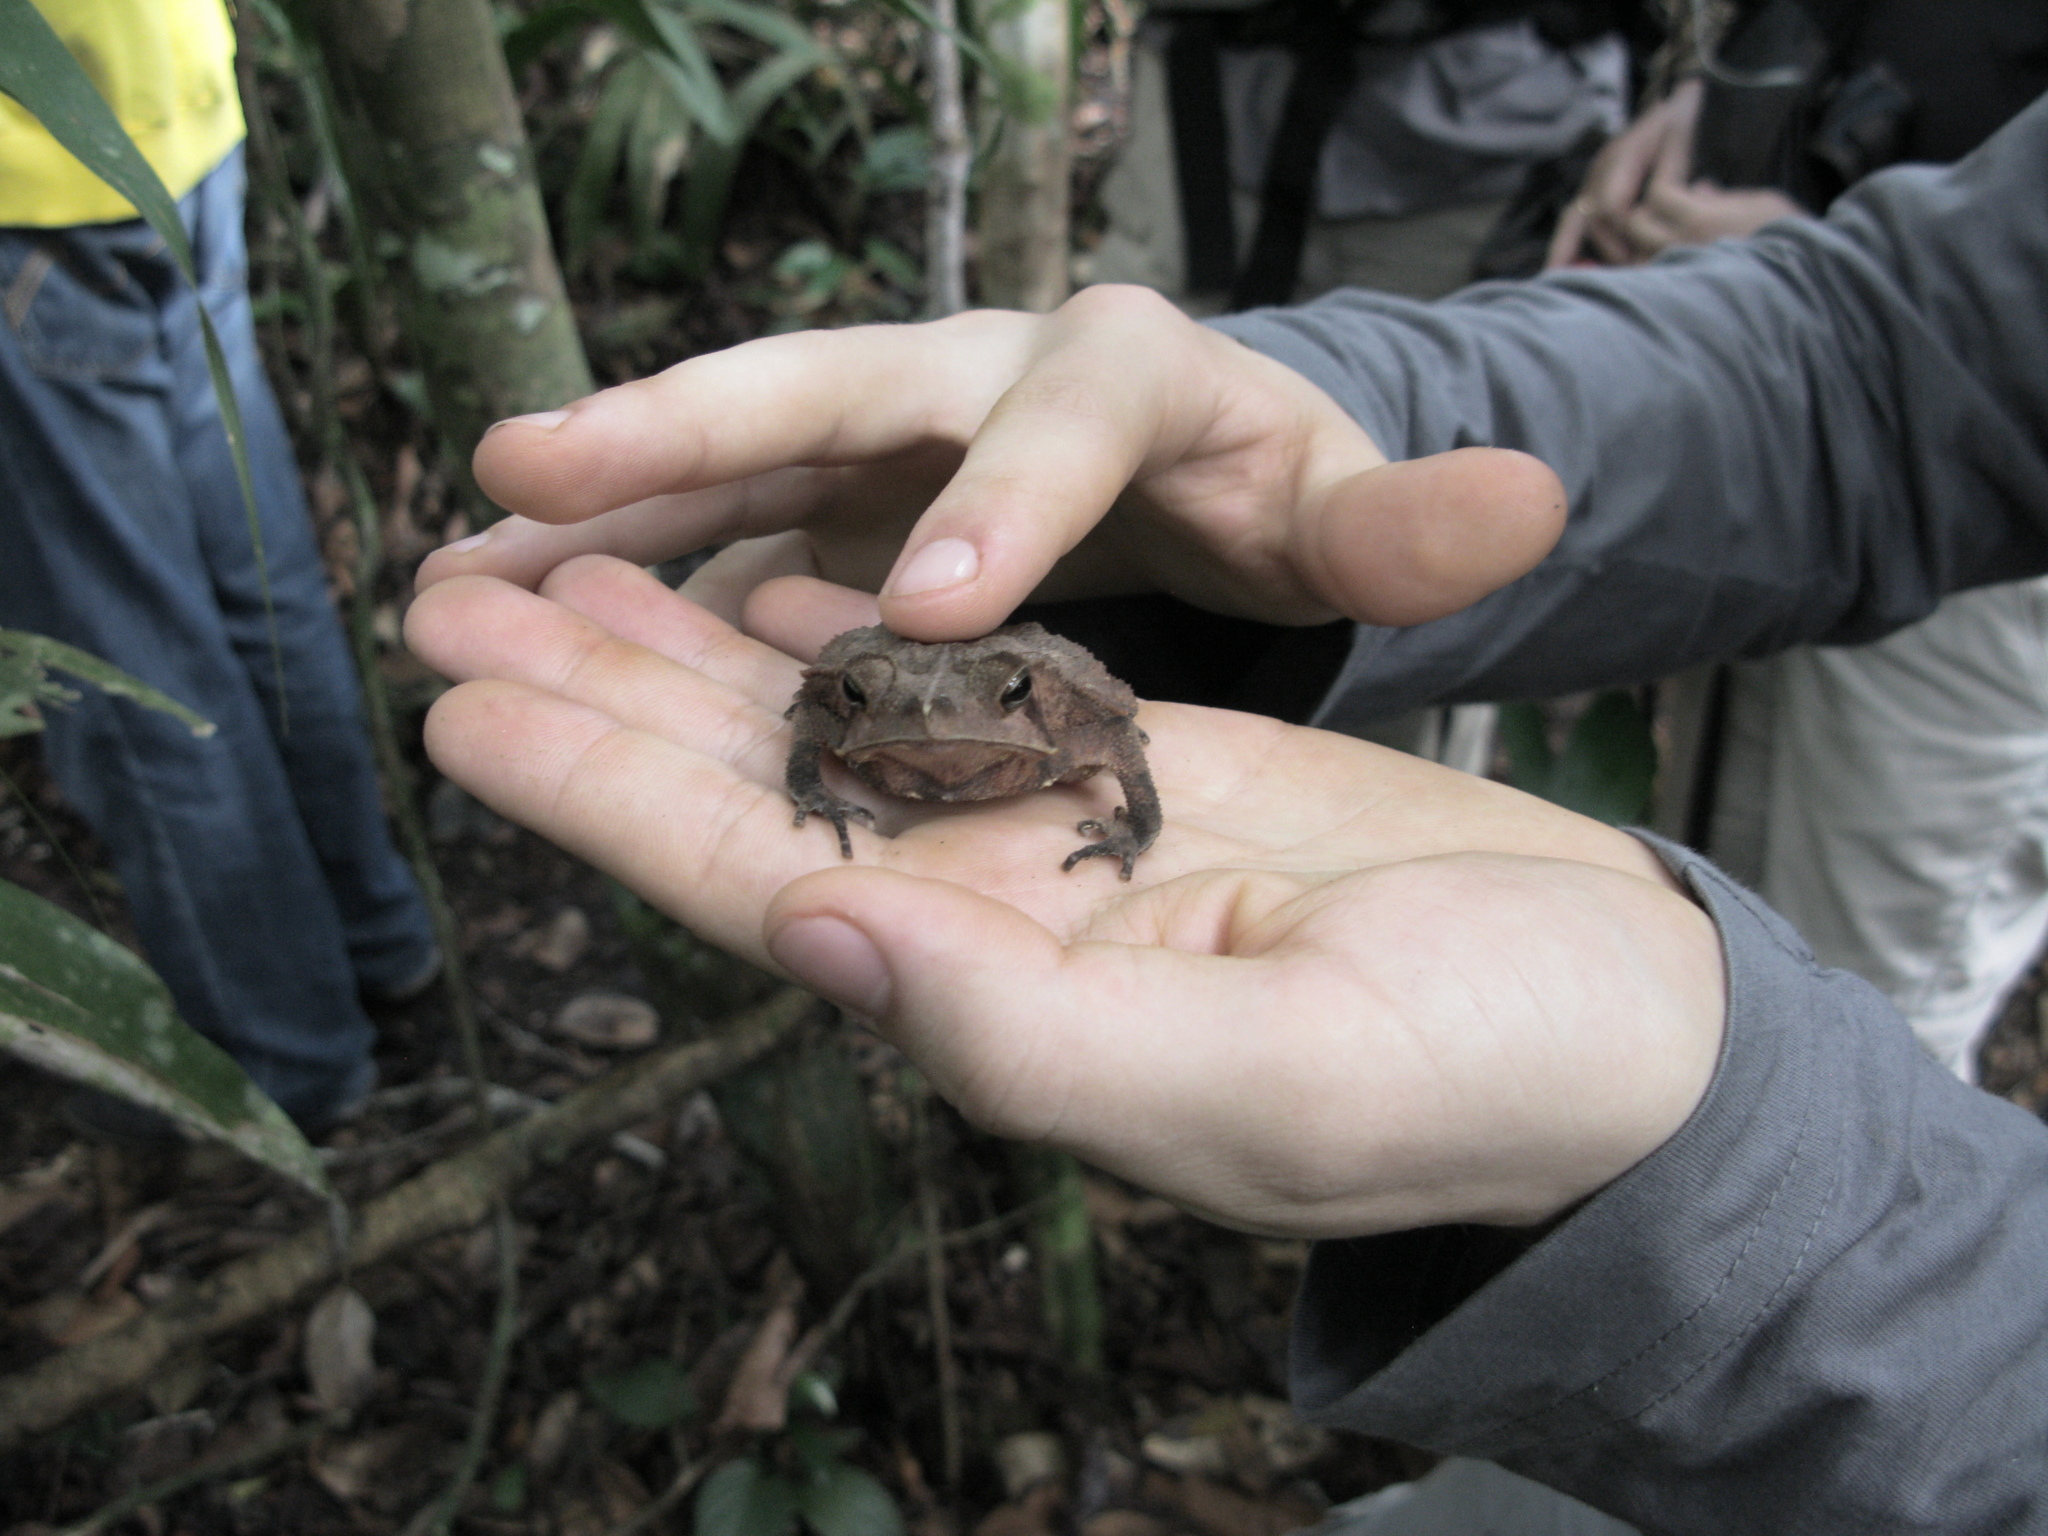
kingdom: Animalia
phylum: Chordata
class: Amphibia
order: Anura
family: Bufonidae
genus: Rhinella
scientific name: Rhinella margaritifera
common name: Mitred toad
